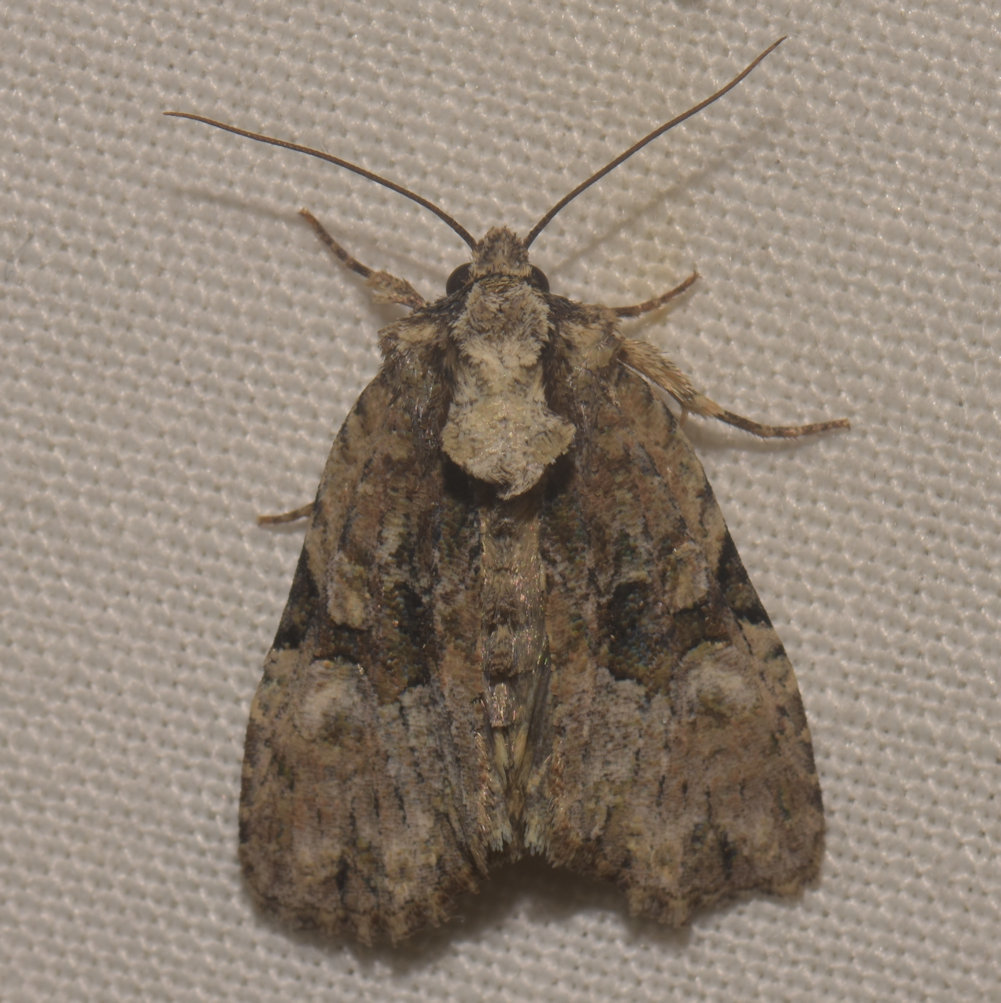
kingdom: Animalia
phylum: Arthropoda
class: Insecta
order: Lepidoptera
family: Noctuidae
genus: Oligia
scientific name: Oligia modica
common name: Black-banded brocade
